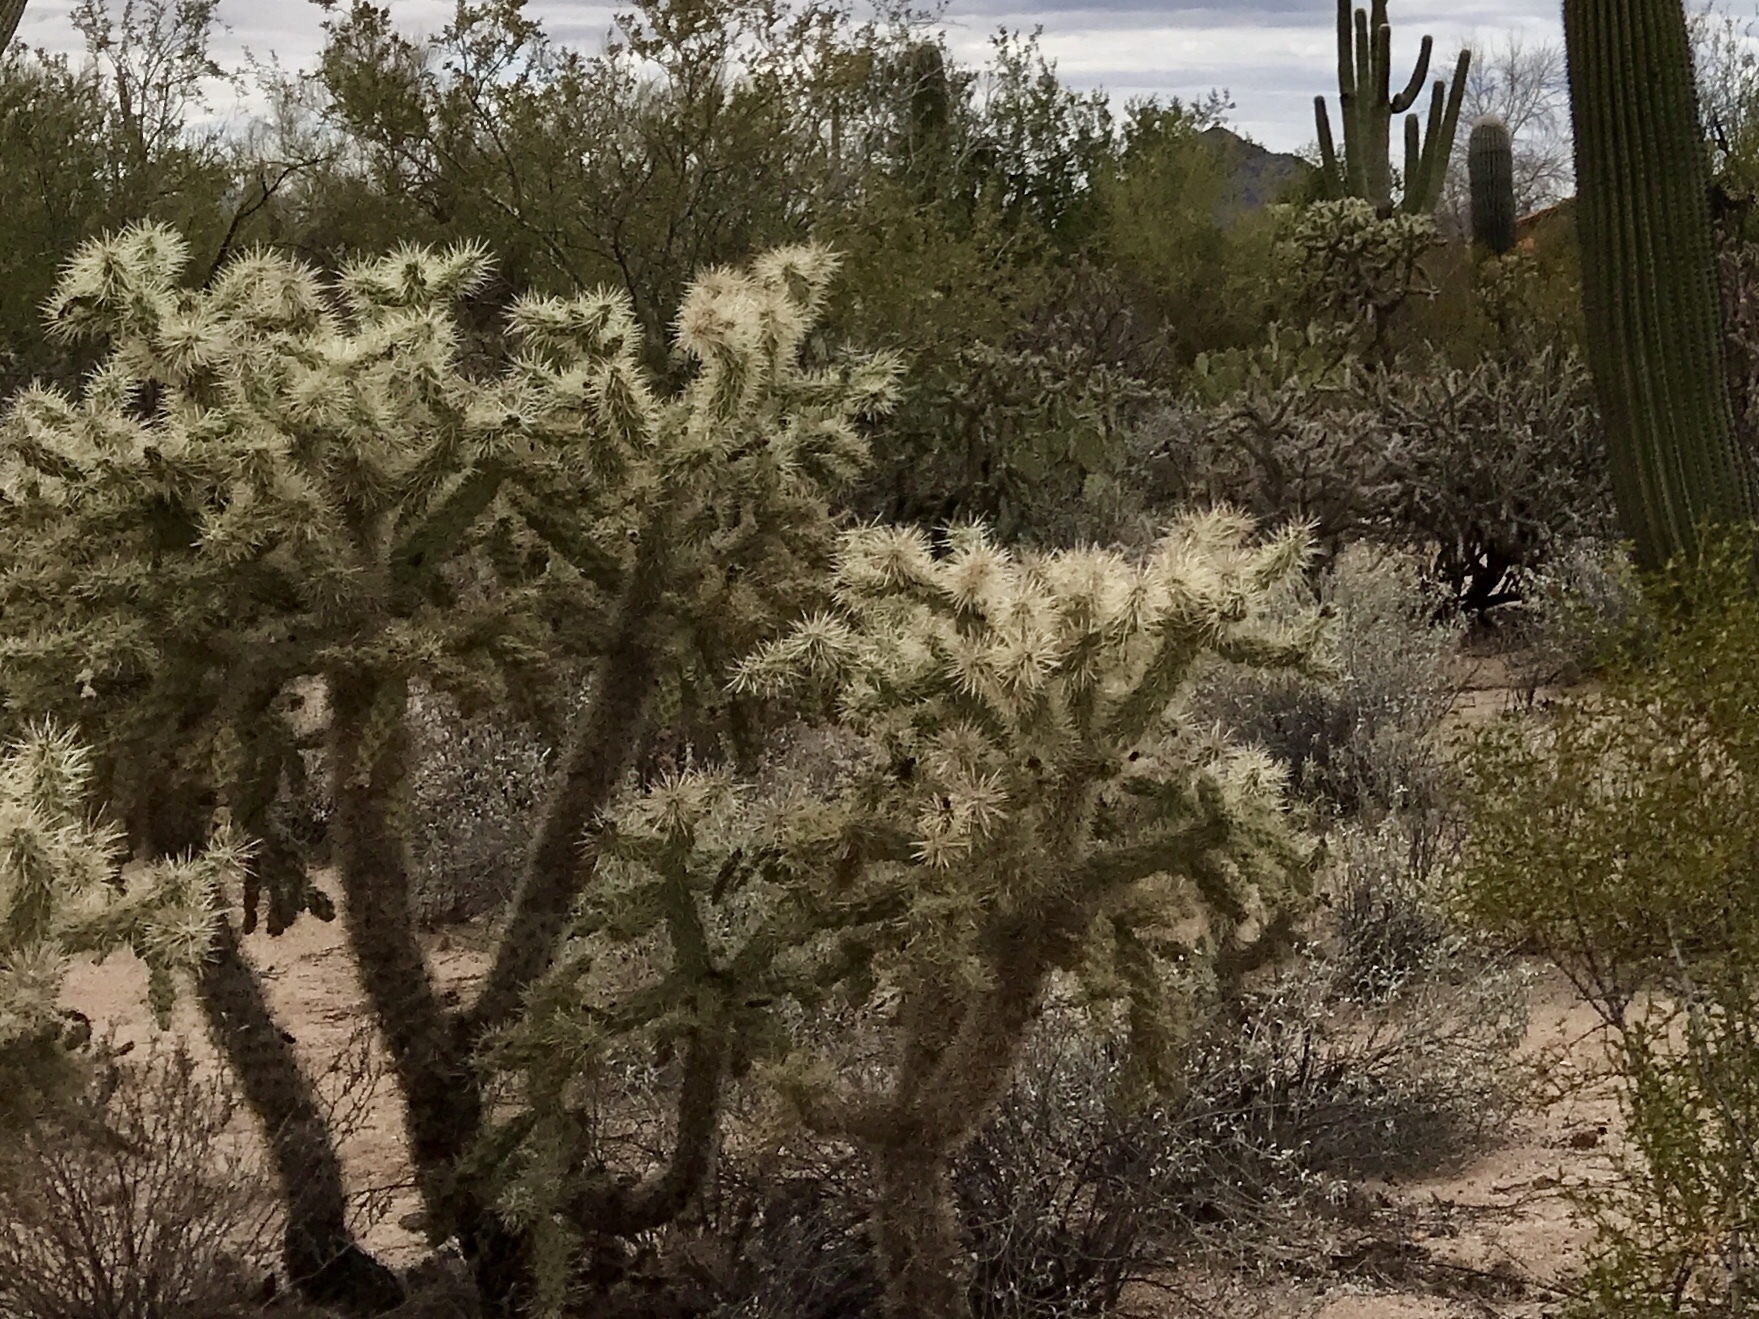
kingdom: Plantae
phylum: Tracheophyta
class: Magnoliopsida
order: Caryophyllales
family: Cactaceae
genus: Cylindropuntia
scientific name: Cylindropuntia fulgida
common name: Jumping cholla
